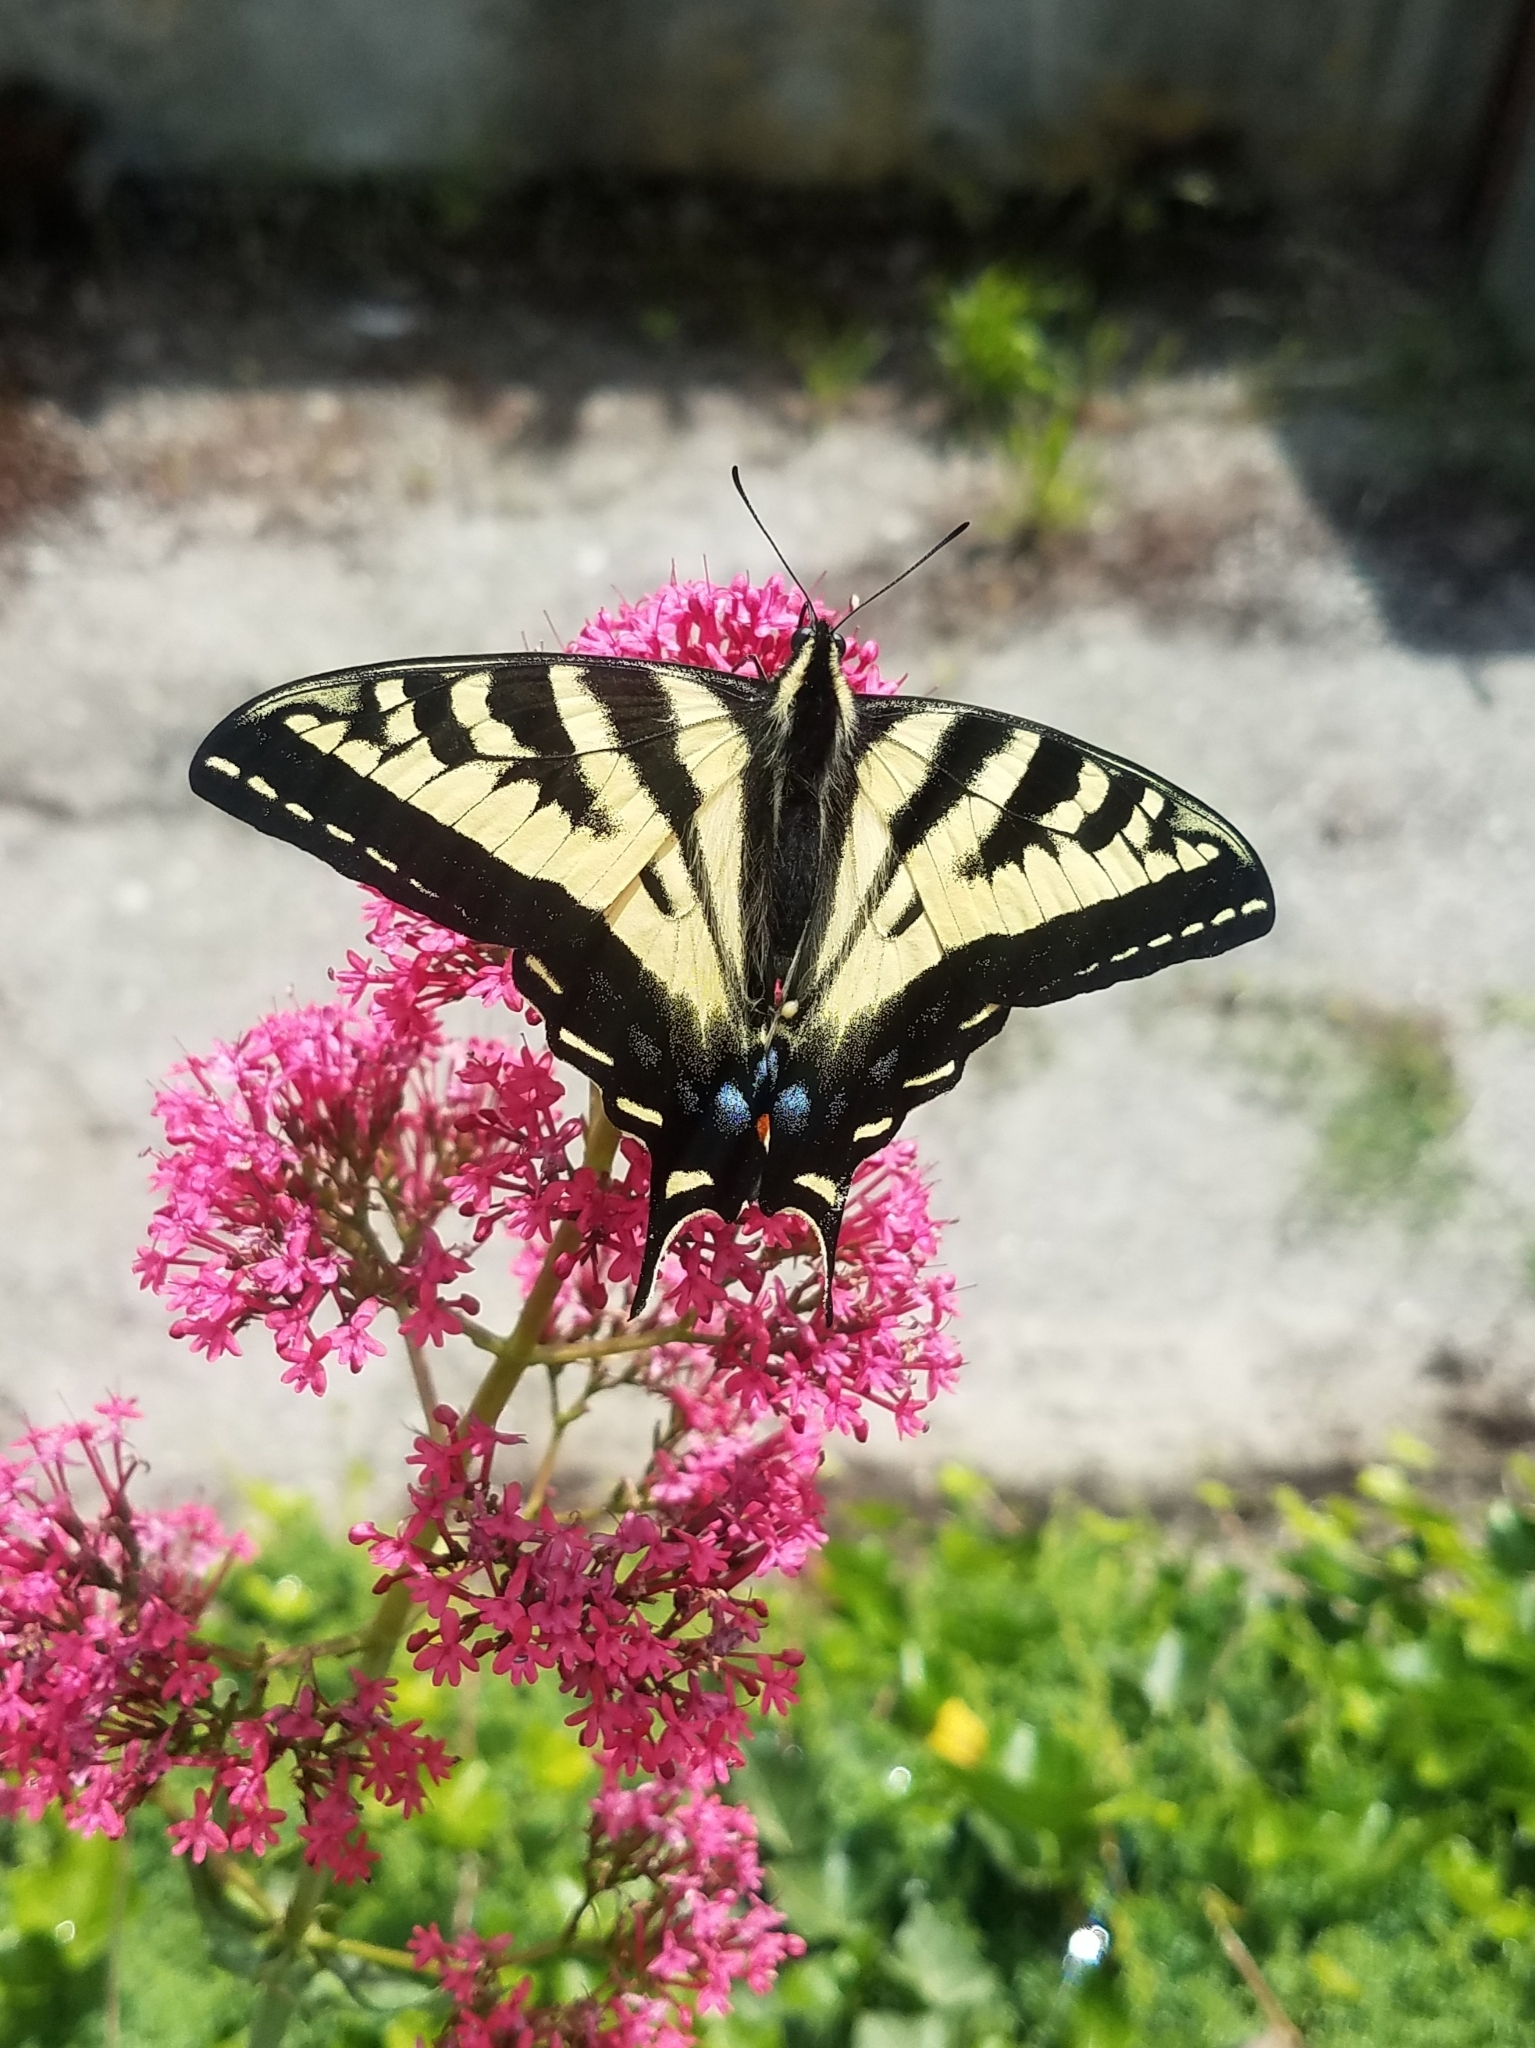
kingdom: Animalia
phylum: Arthropoda
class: Insecta
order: Lepidoptera
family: Papilionidae
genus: Papilio
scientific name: Papilio rutulus
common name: Western tiger swallowtail
